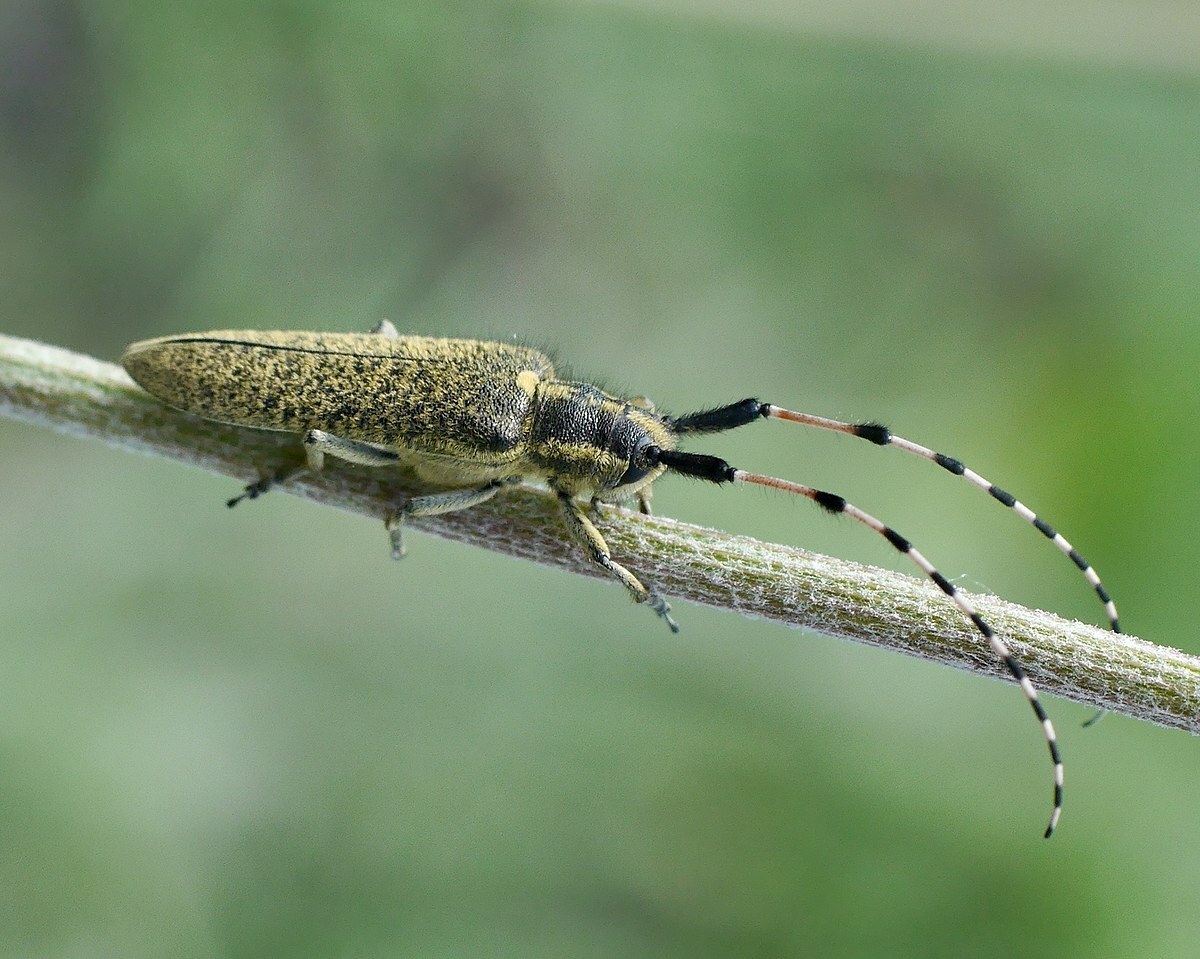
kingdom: Animalia
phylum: Arthropoda
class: Insecta
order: Coleoptera
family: Cerambycidae
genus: Agapanthia
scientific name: Agapanthia dahlii
